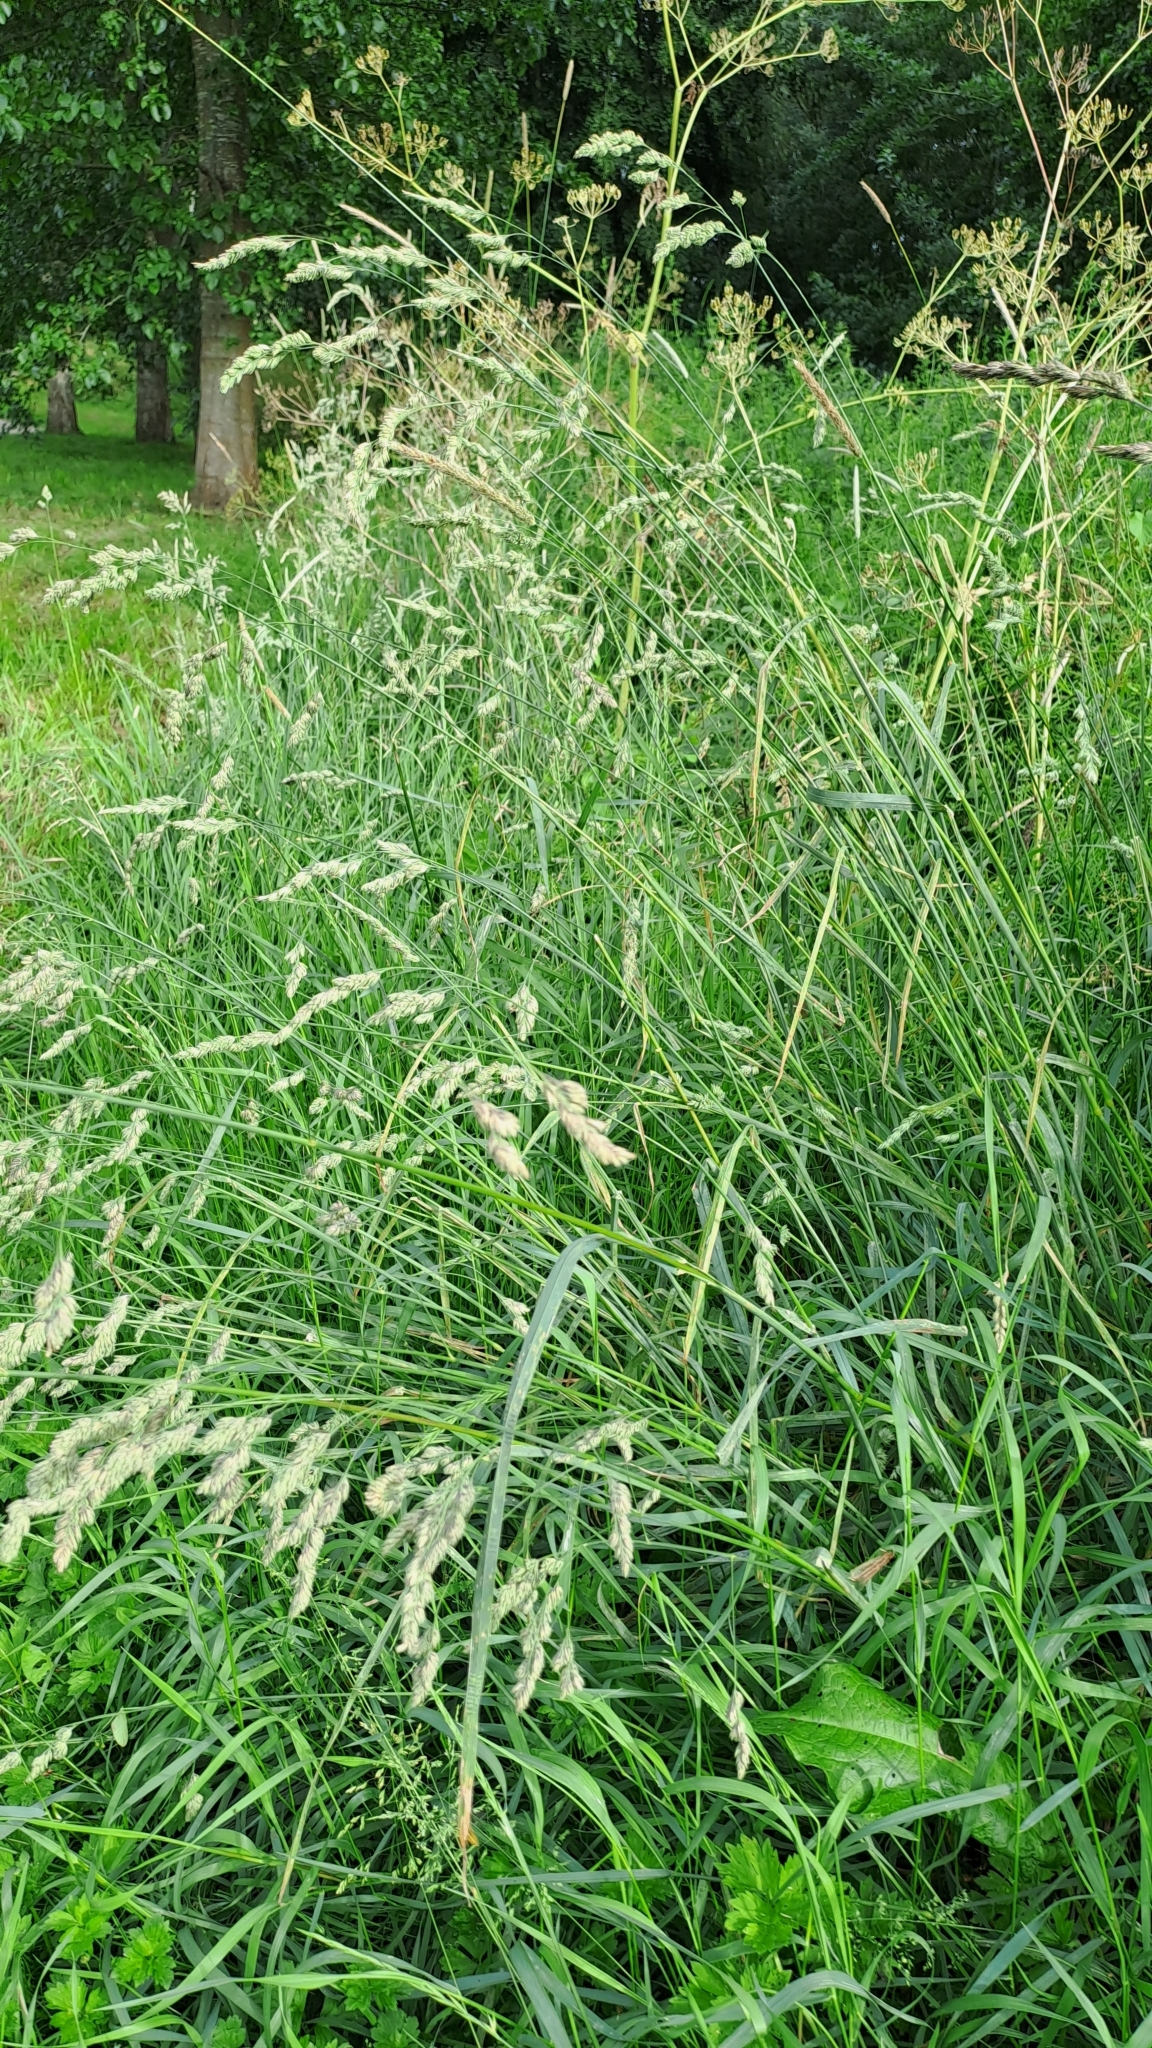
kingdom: Plantae
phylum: Tracheophyta
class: Liliopsida
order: Poales
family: Poaceae
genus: Dactylis
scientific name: Dactylis glomerata
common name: Orchardgrass
